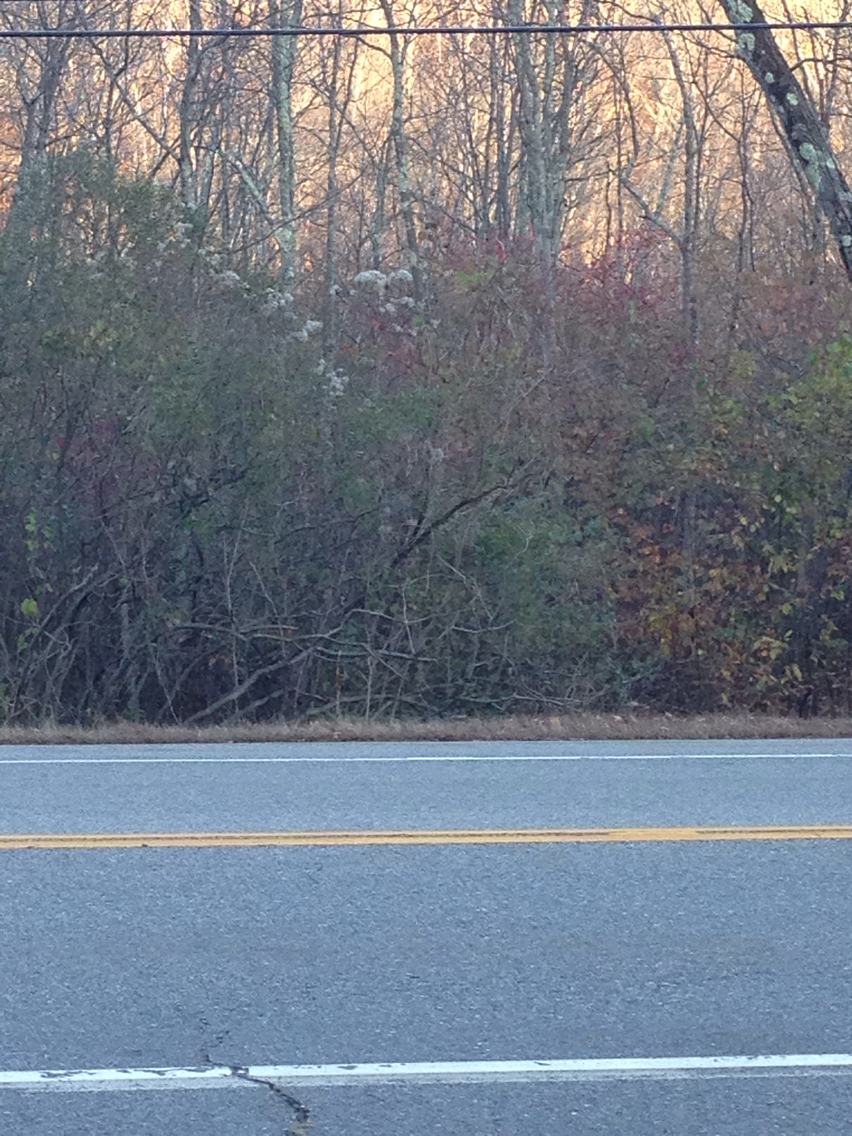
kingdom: Plantae
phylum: Tracheophyta
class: Magnoliopsida
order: Ranunculales
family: Ranunculaceae
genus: Clematis
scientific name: Clematis virginiana
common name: Virgin's-bower
